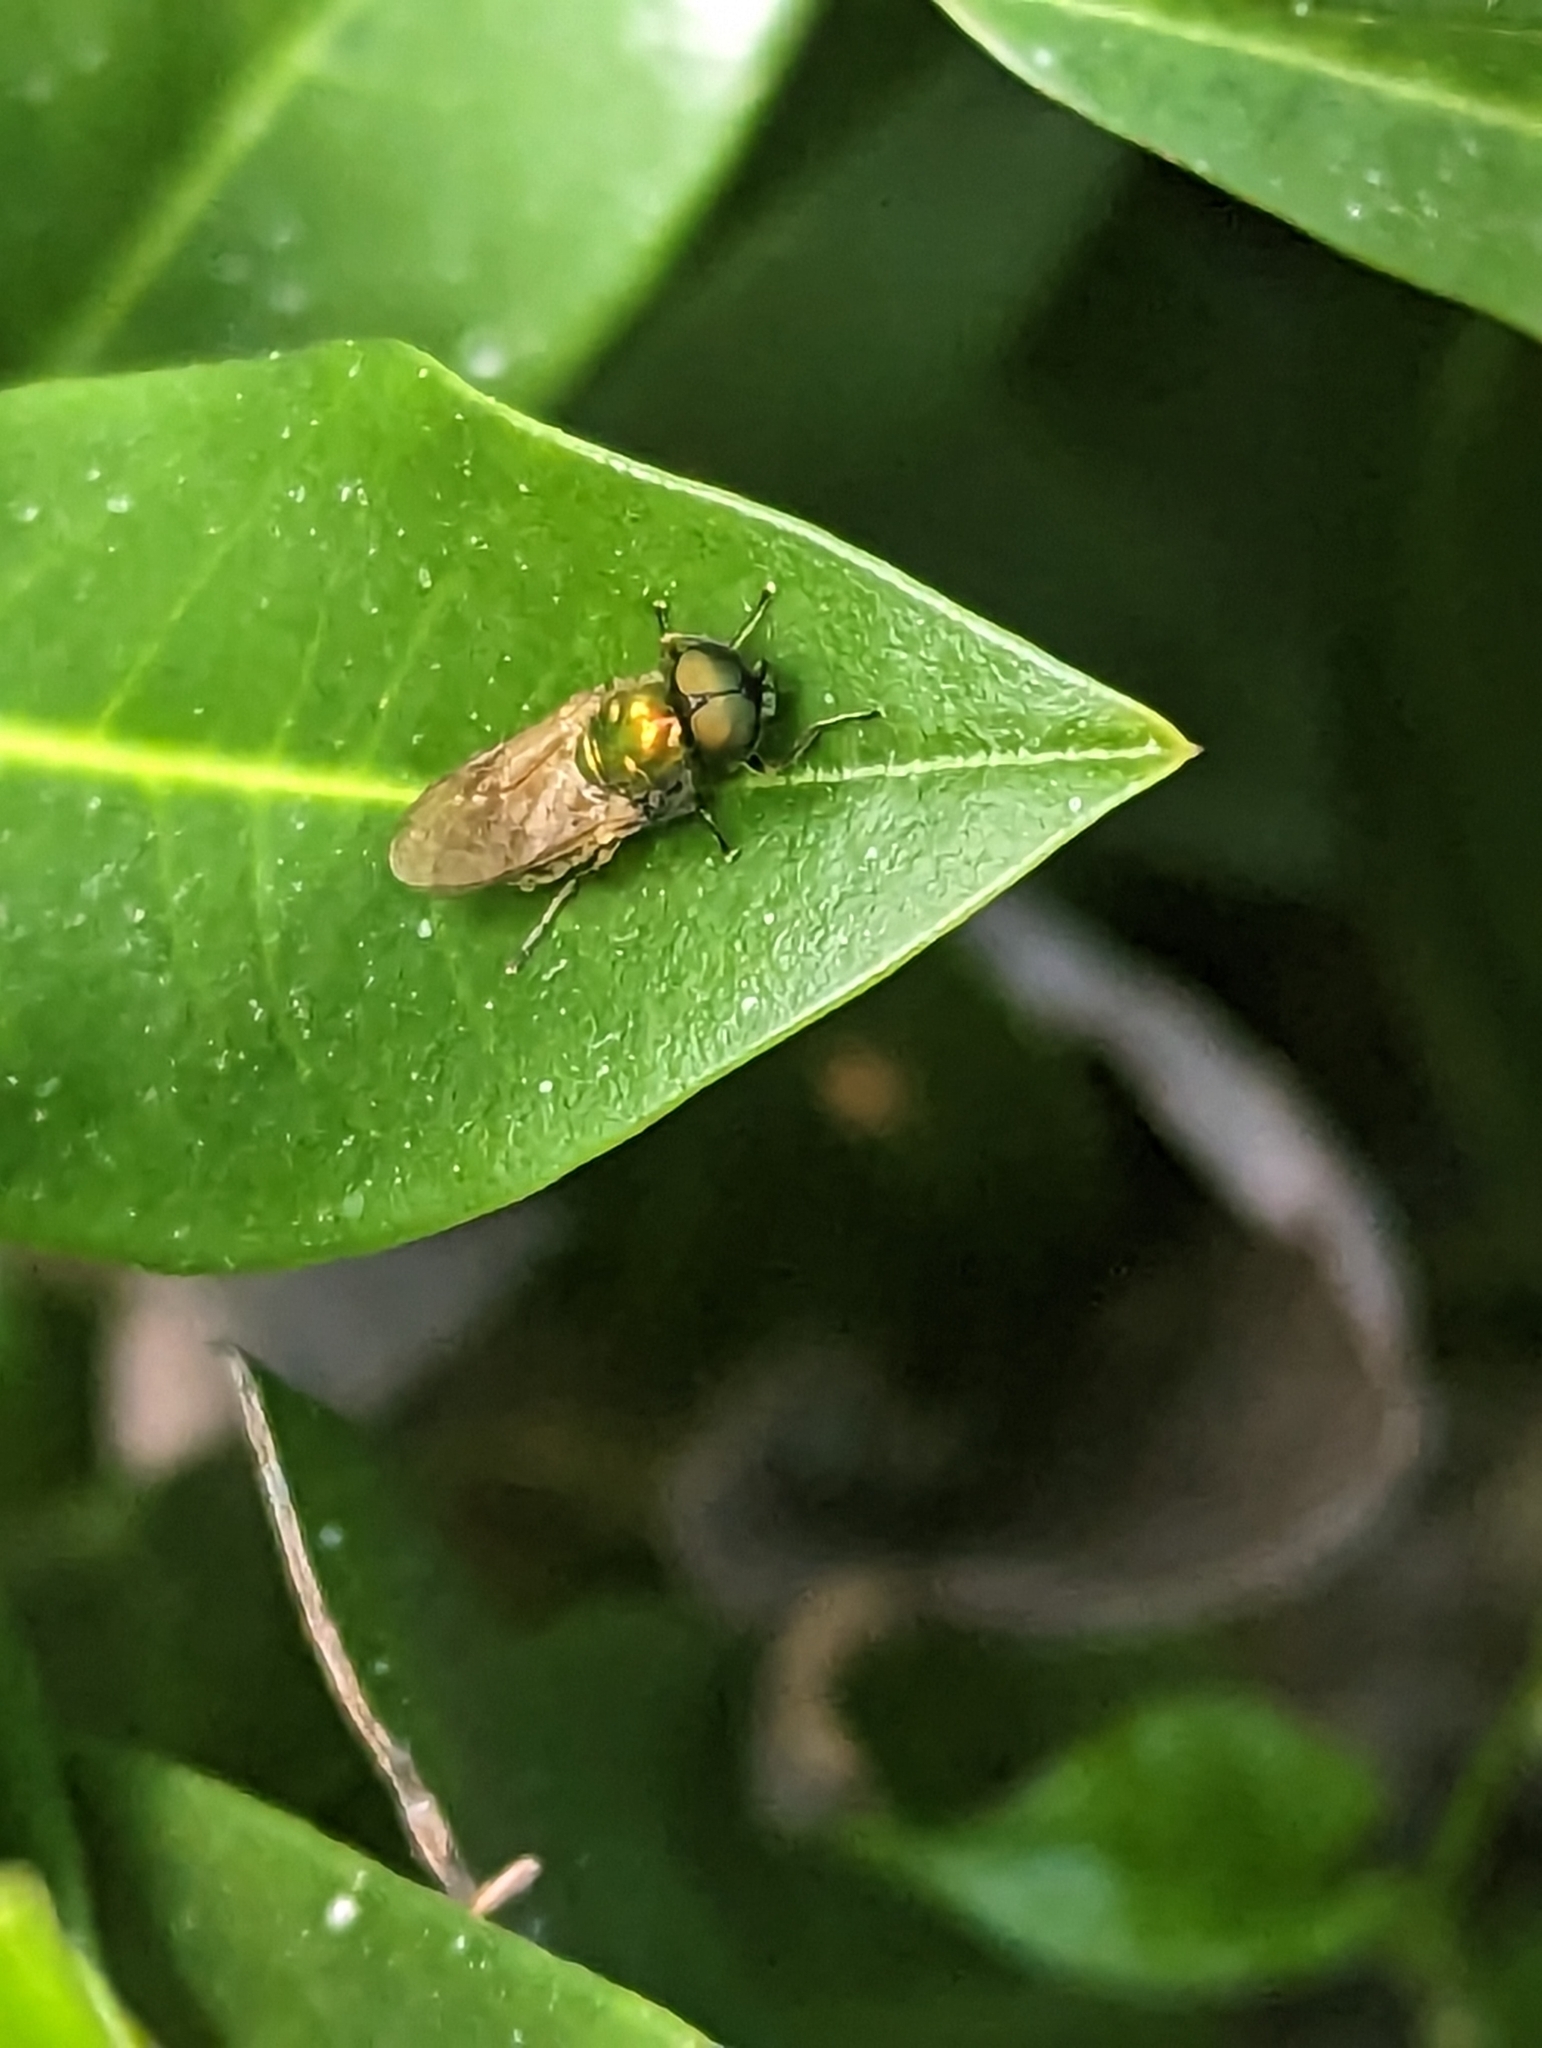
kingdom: Animalia
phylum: Arthropoda
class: Insecta
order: Diptera
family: Stratiomyidae
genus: Chloromyia
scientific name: Chloromyia formosa
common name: Soldier fly
